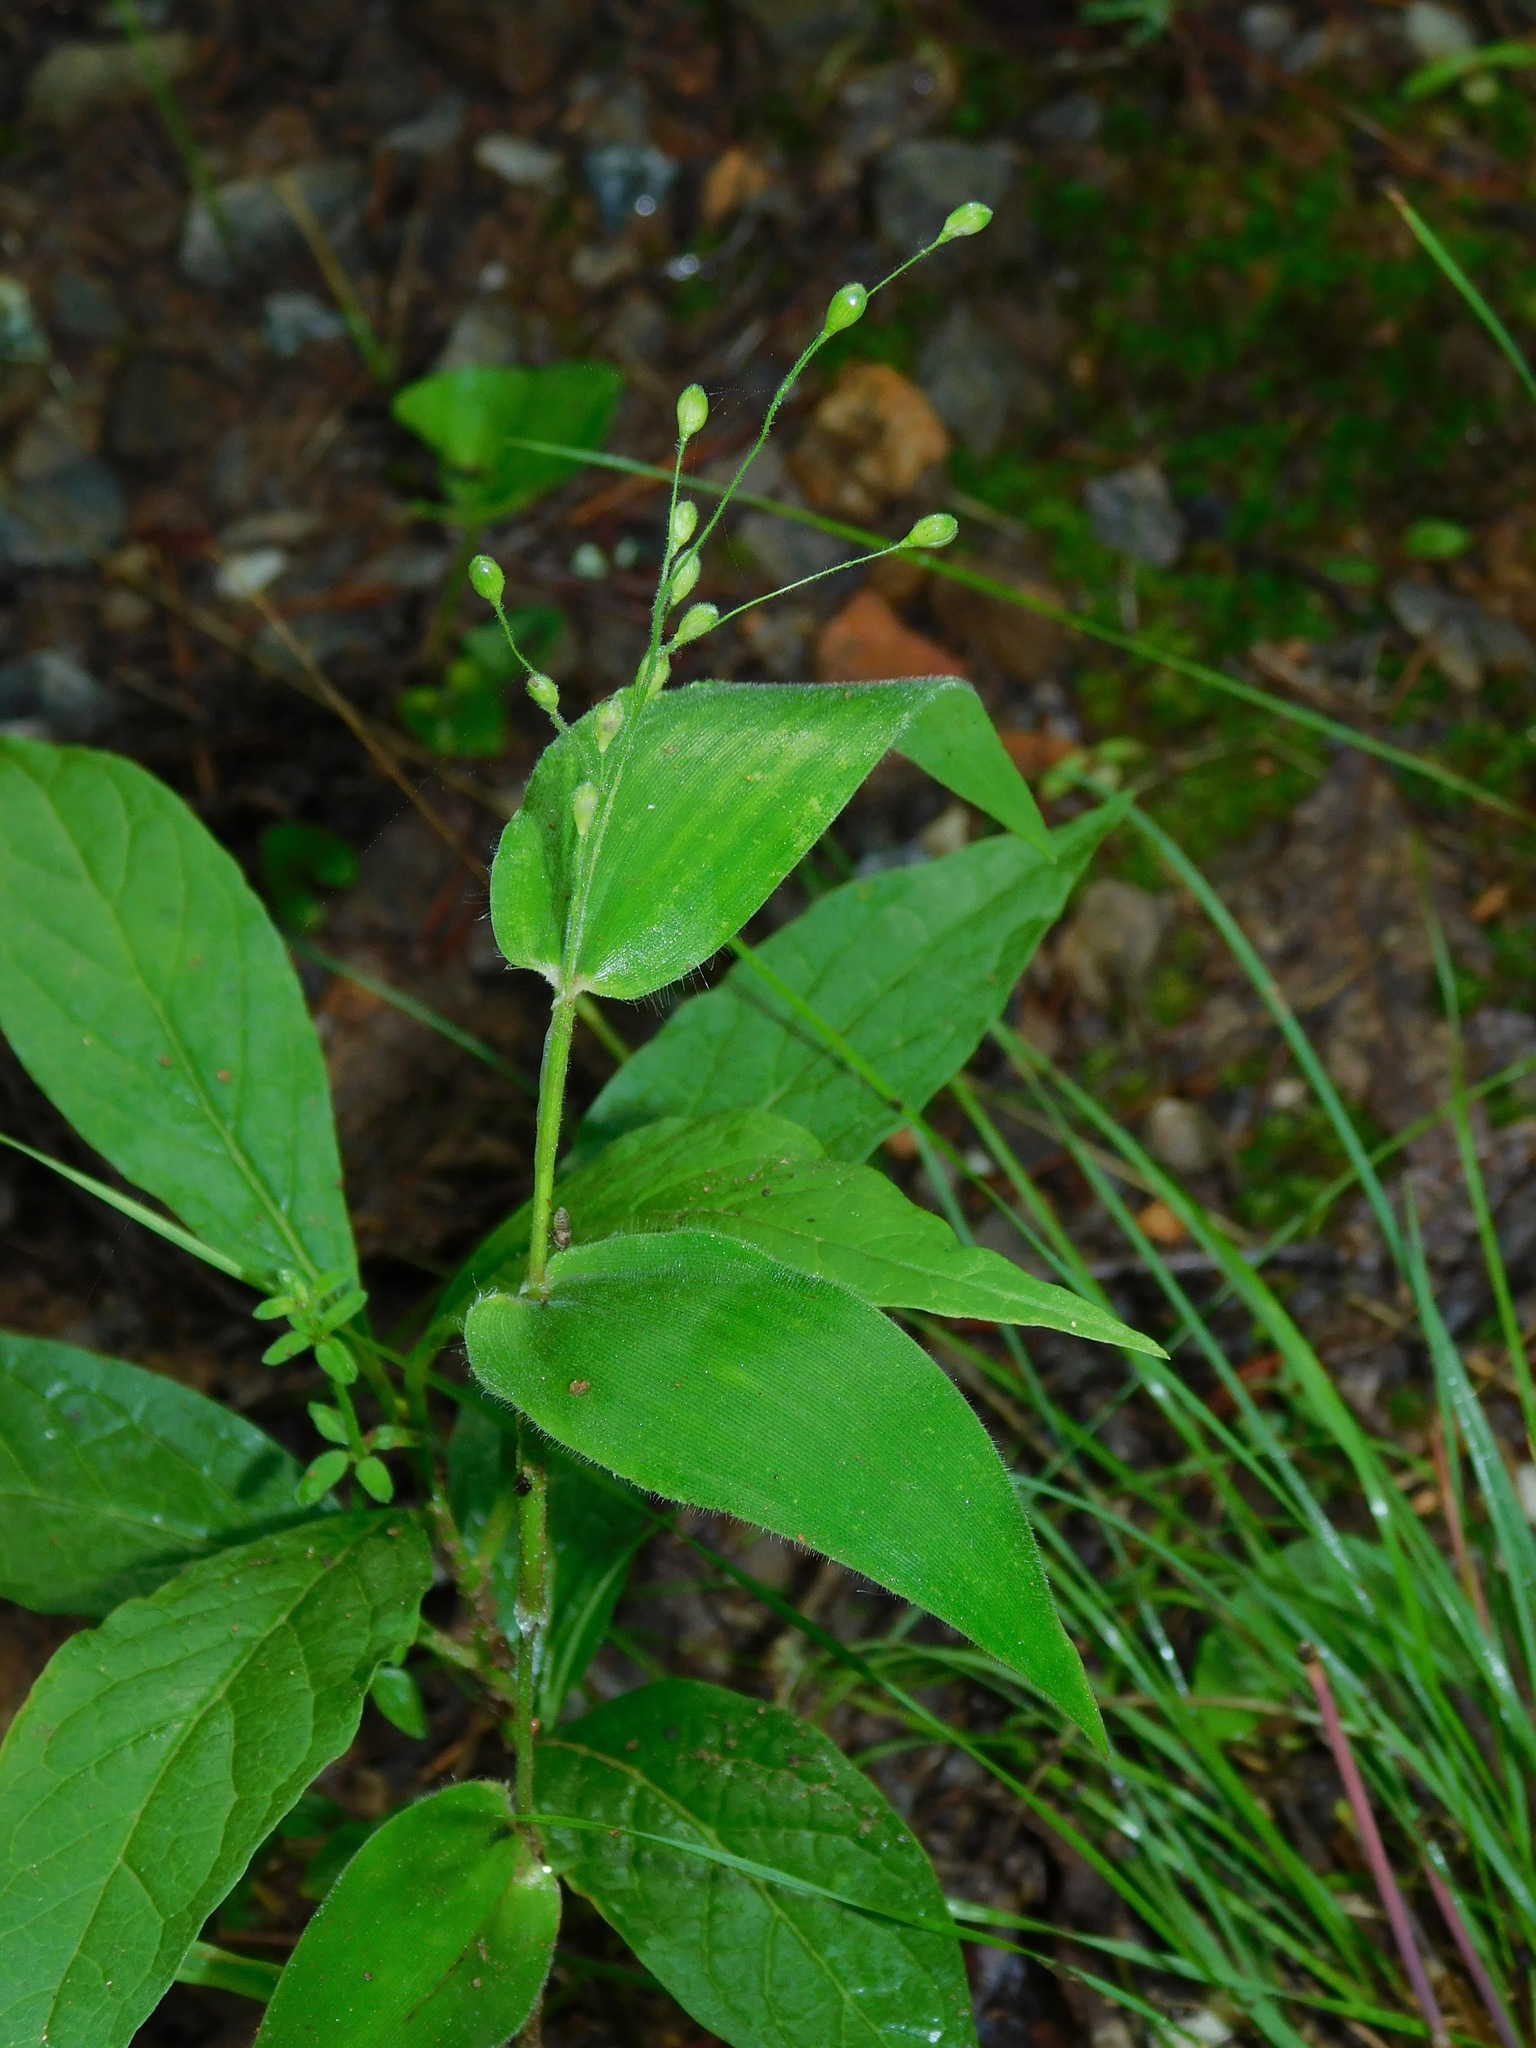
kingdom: Plantae
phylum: Tracheophyta
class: Liliopsida
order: Poales
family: Poaceae
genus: Dichanthelium
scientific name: Dichanthelium boscii
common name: Bosc's panic grass
